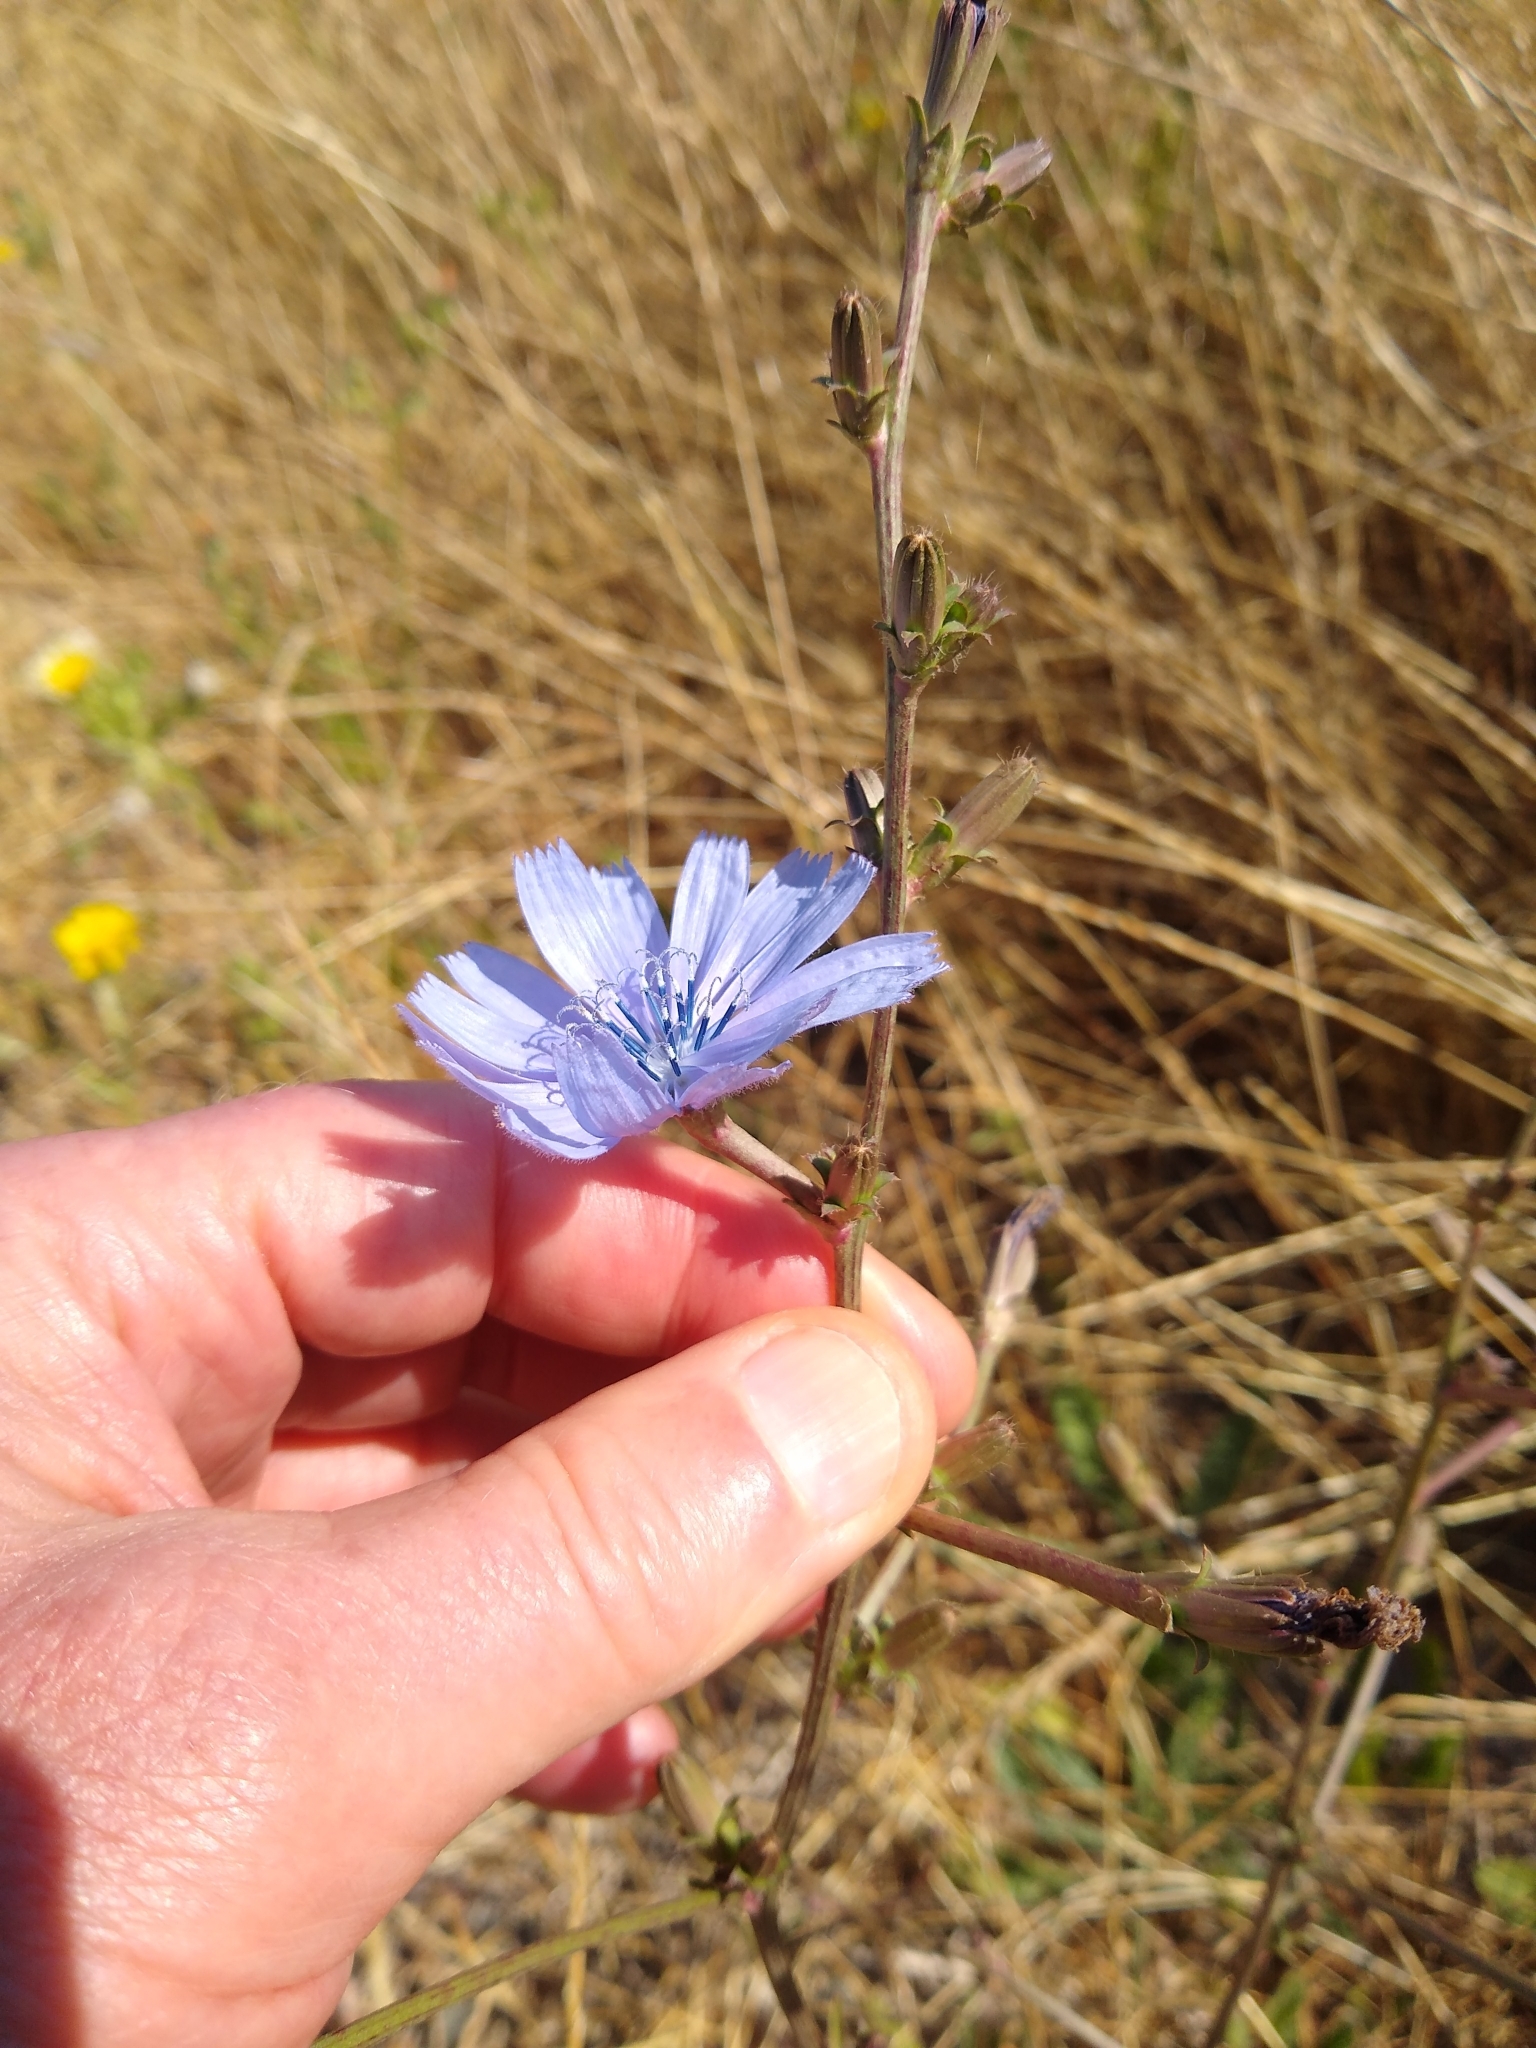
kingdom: Plantae
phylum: Tracheophyta
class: Magnoliopsida
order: Asterales
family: Asteraceae
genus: Cichorium
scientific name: Cichorium intybus
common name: Chicory
